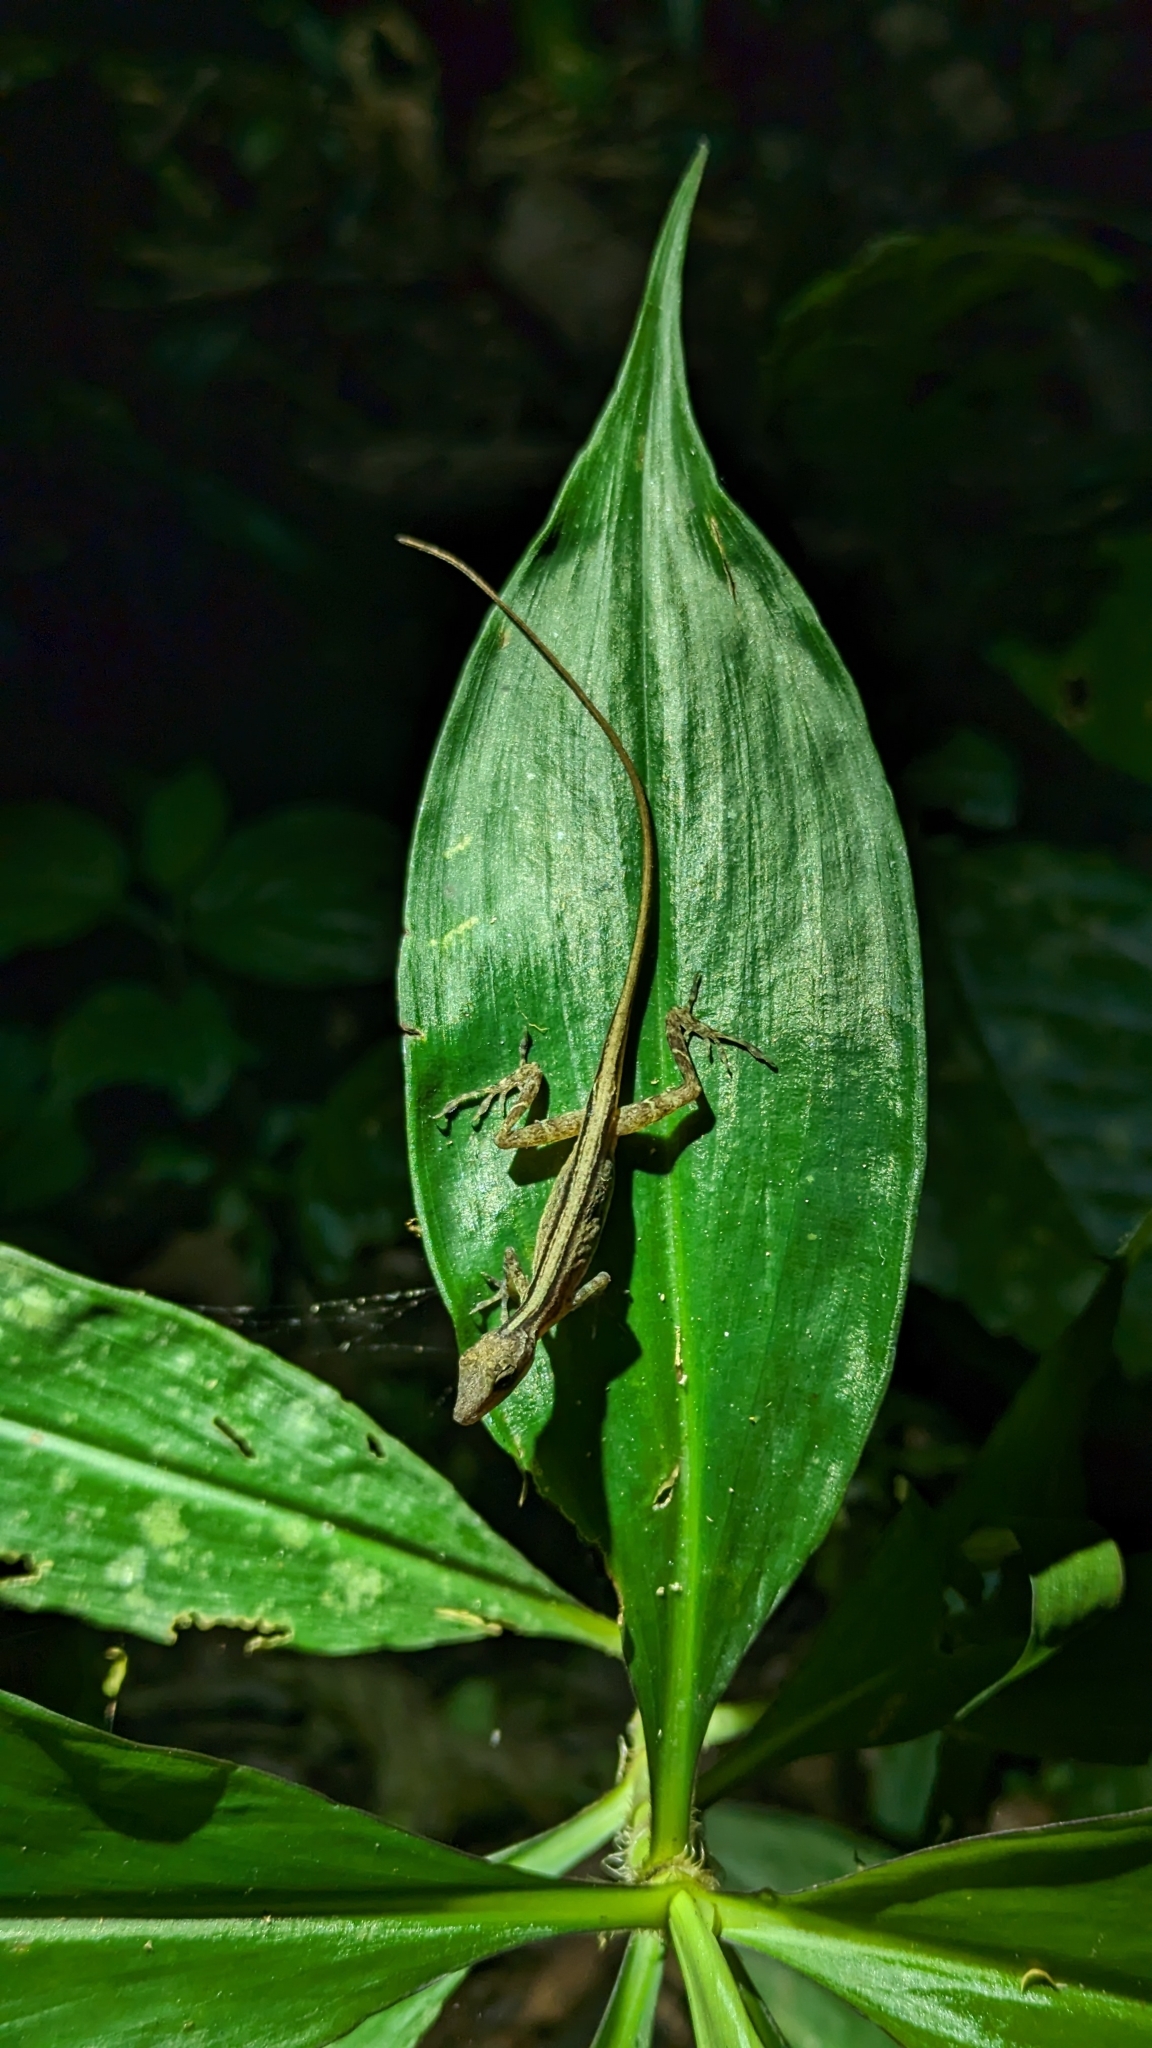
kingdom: Animalia
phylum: Chordata
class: Squamata
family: Dactyloidae
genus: Anolis
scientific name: Anolis limifrons
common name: Border anole
